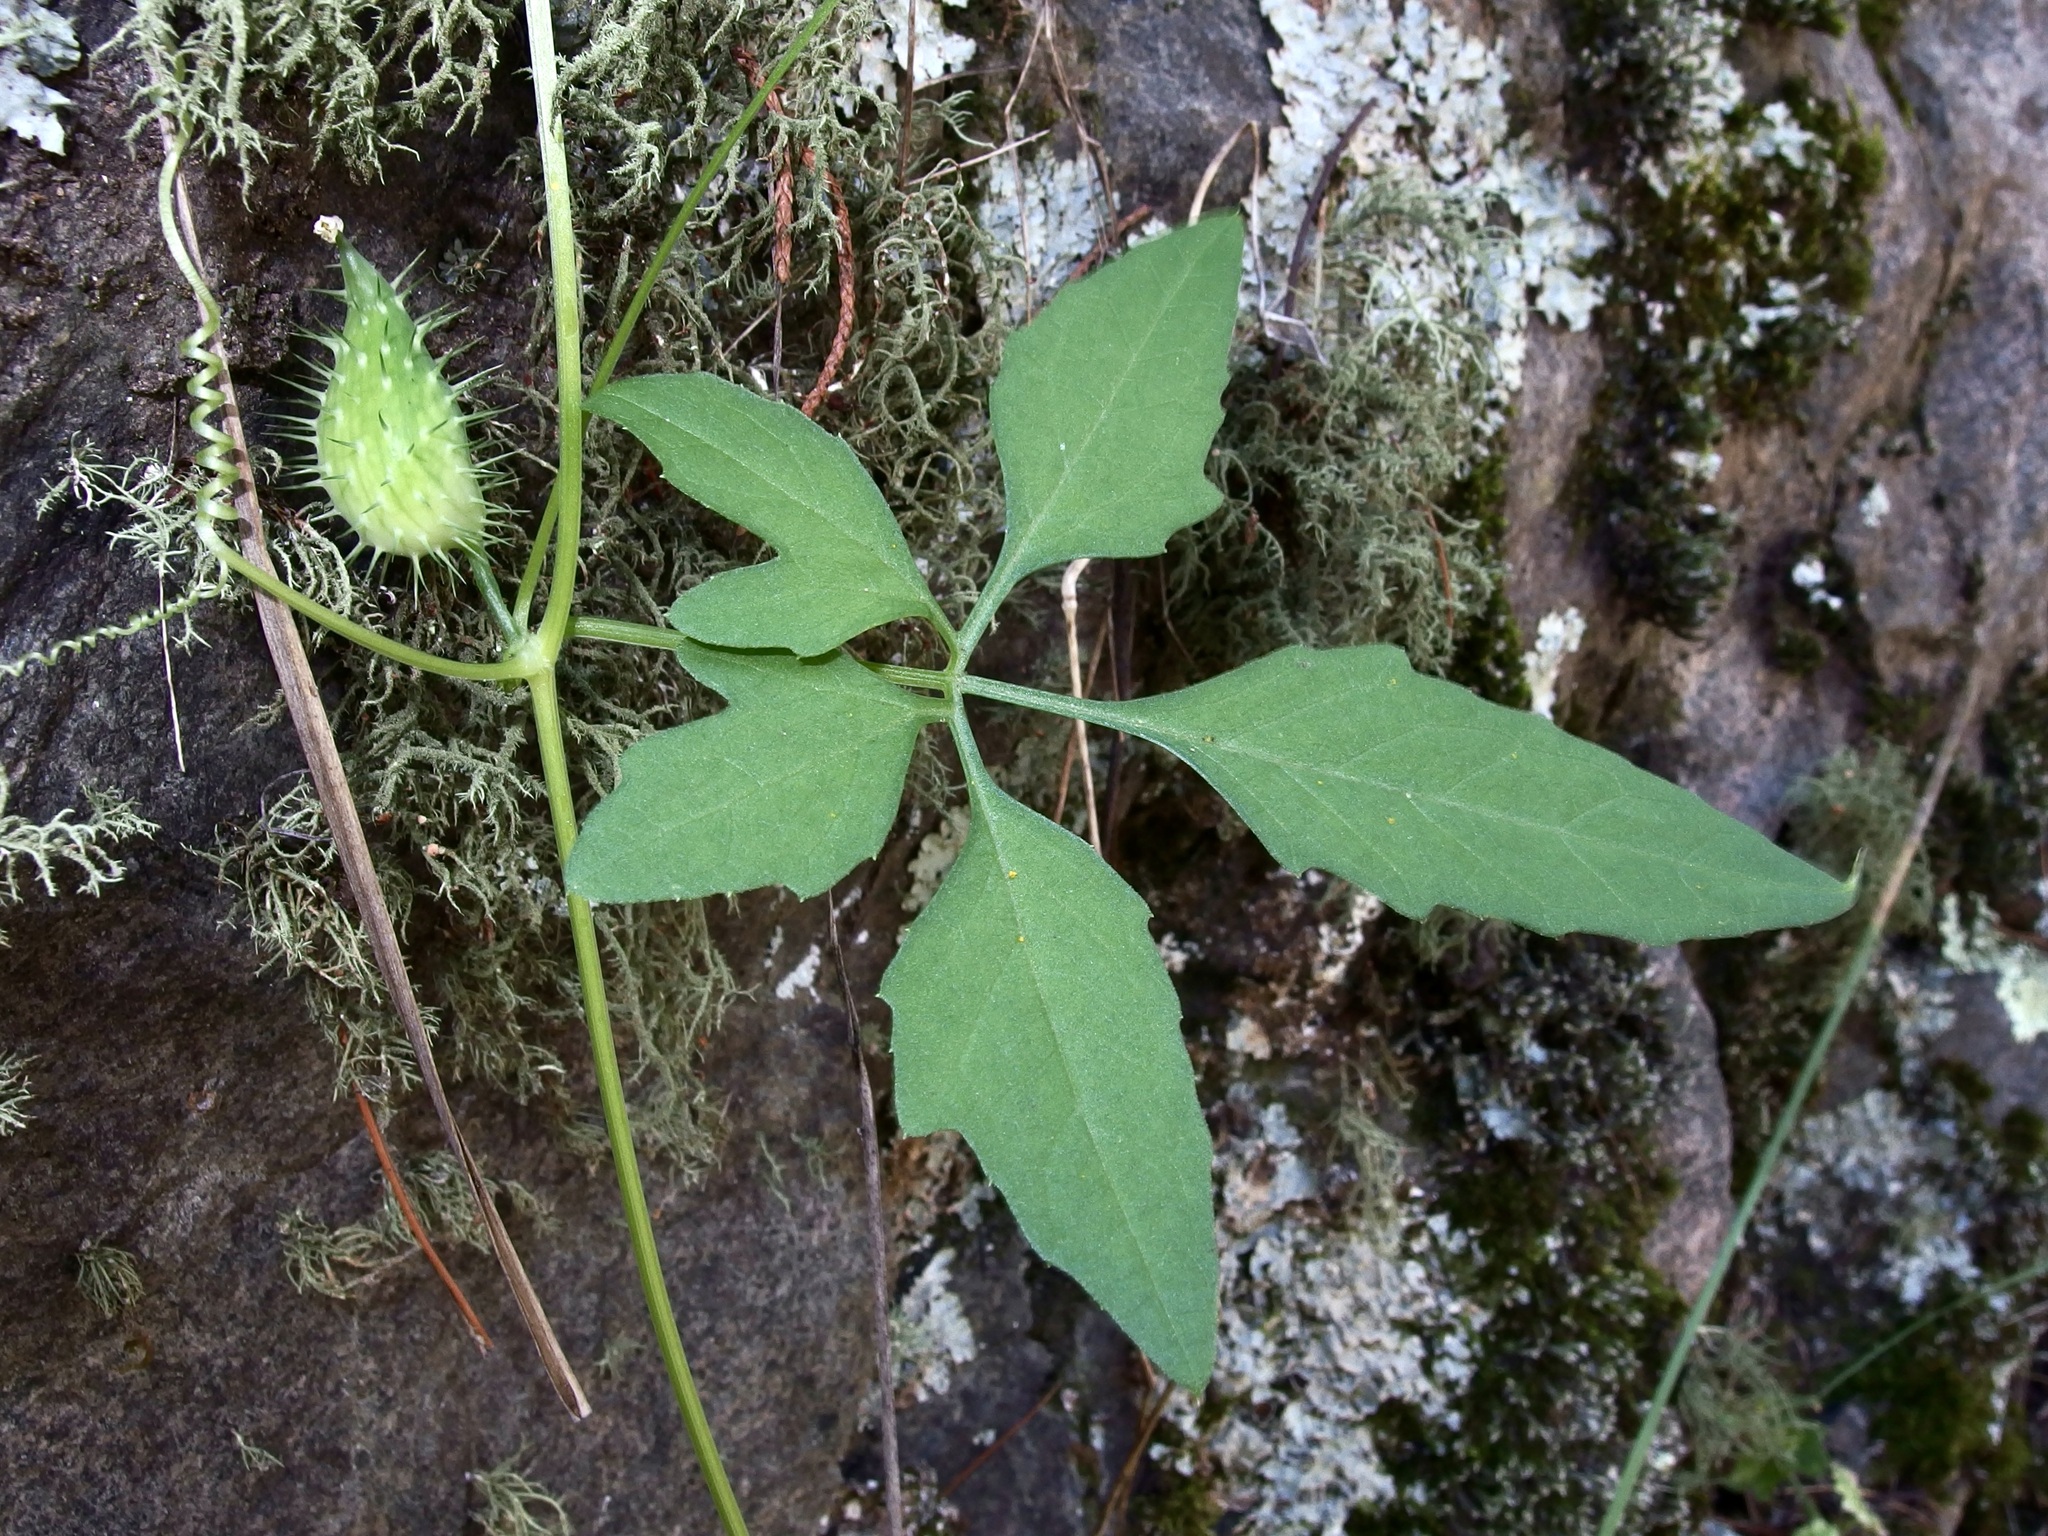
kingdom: Plantae
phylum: Tracheophyta
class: Magnoliopsida
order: Cucurbitales
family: Cucurbitaceae
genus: Cyclanthera
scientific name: Cyclanthera gracillima
